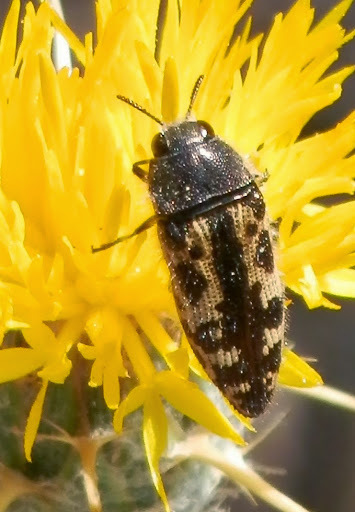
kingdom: Animalia
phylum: Arthropoda
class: Insecta
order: Coleoptera
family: Buprestidae
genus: Acmaeodera
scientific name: Acmaeodera hepburnii
